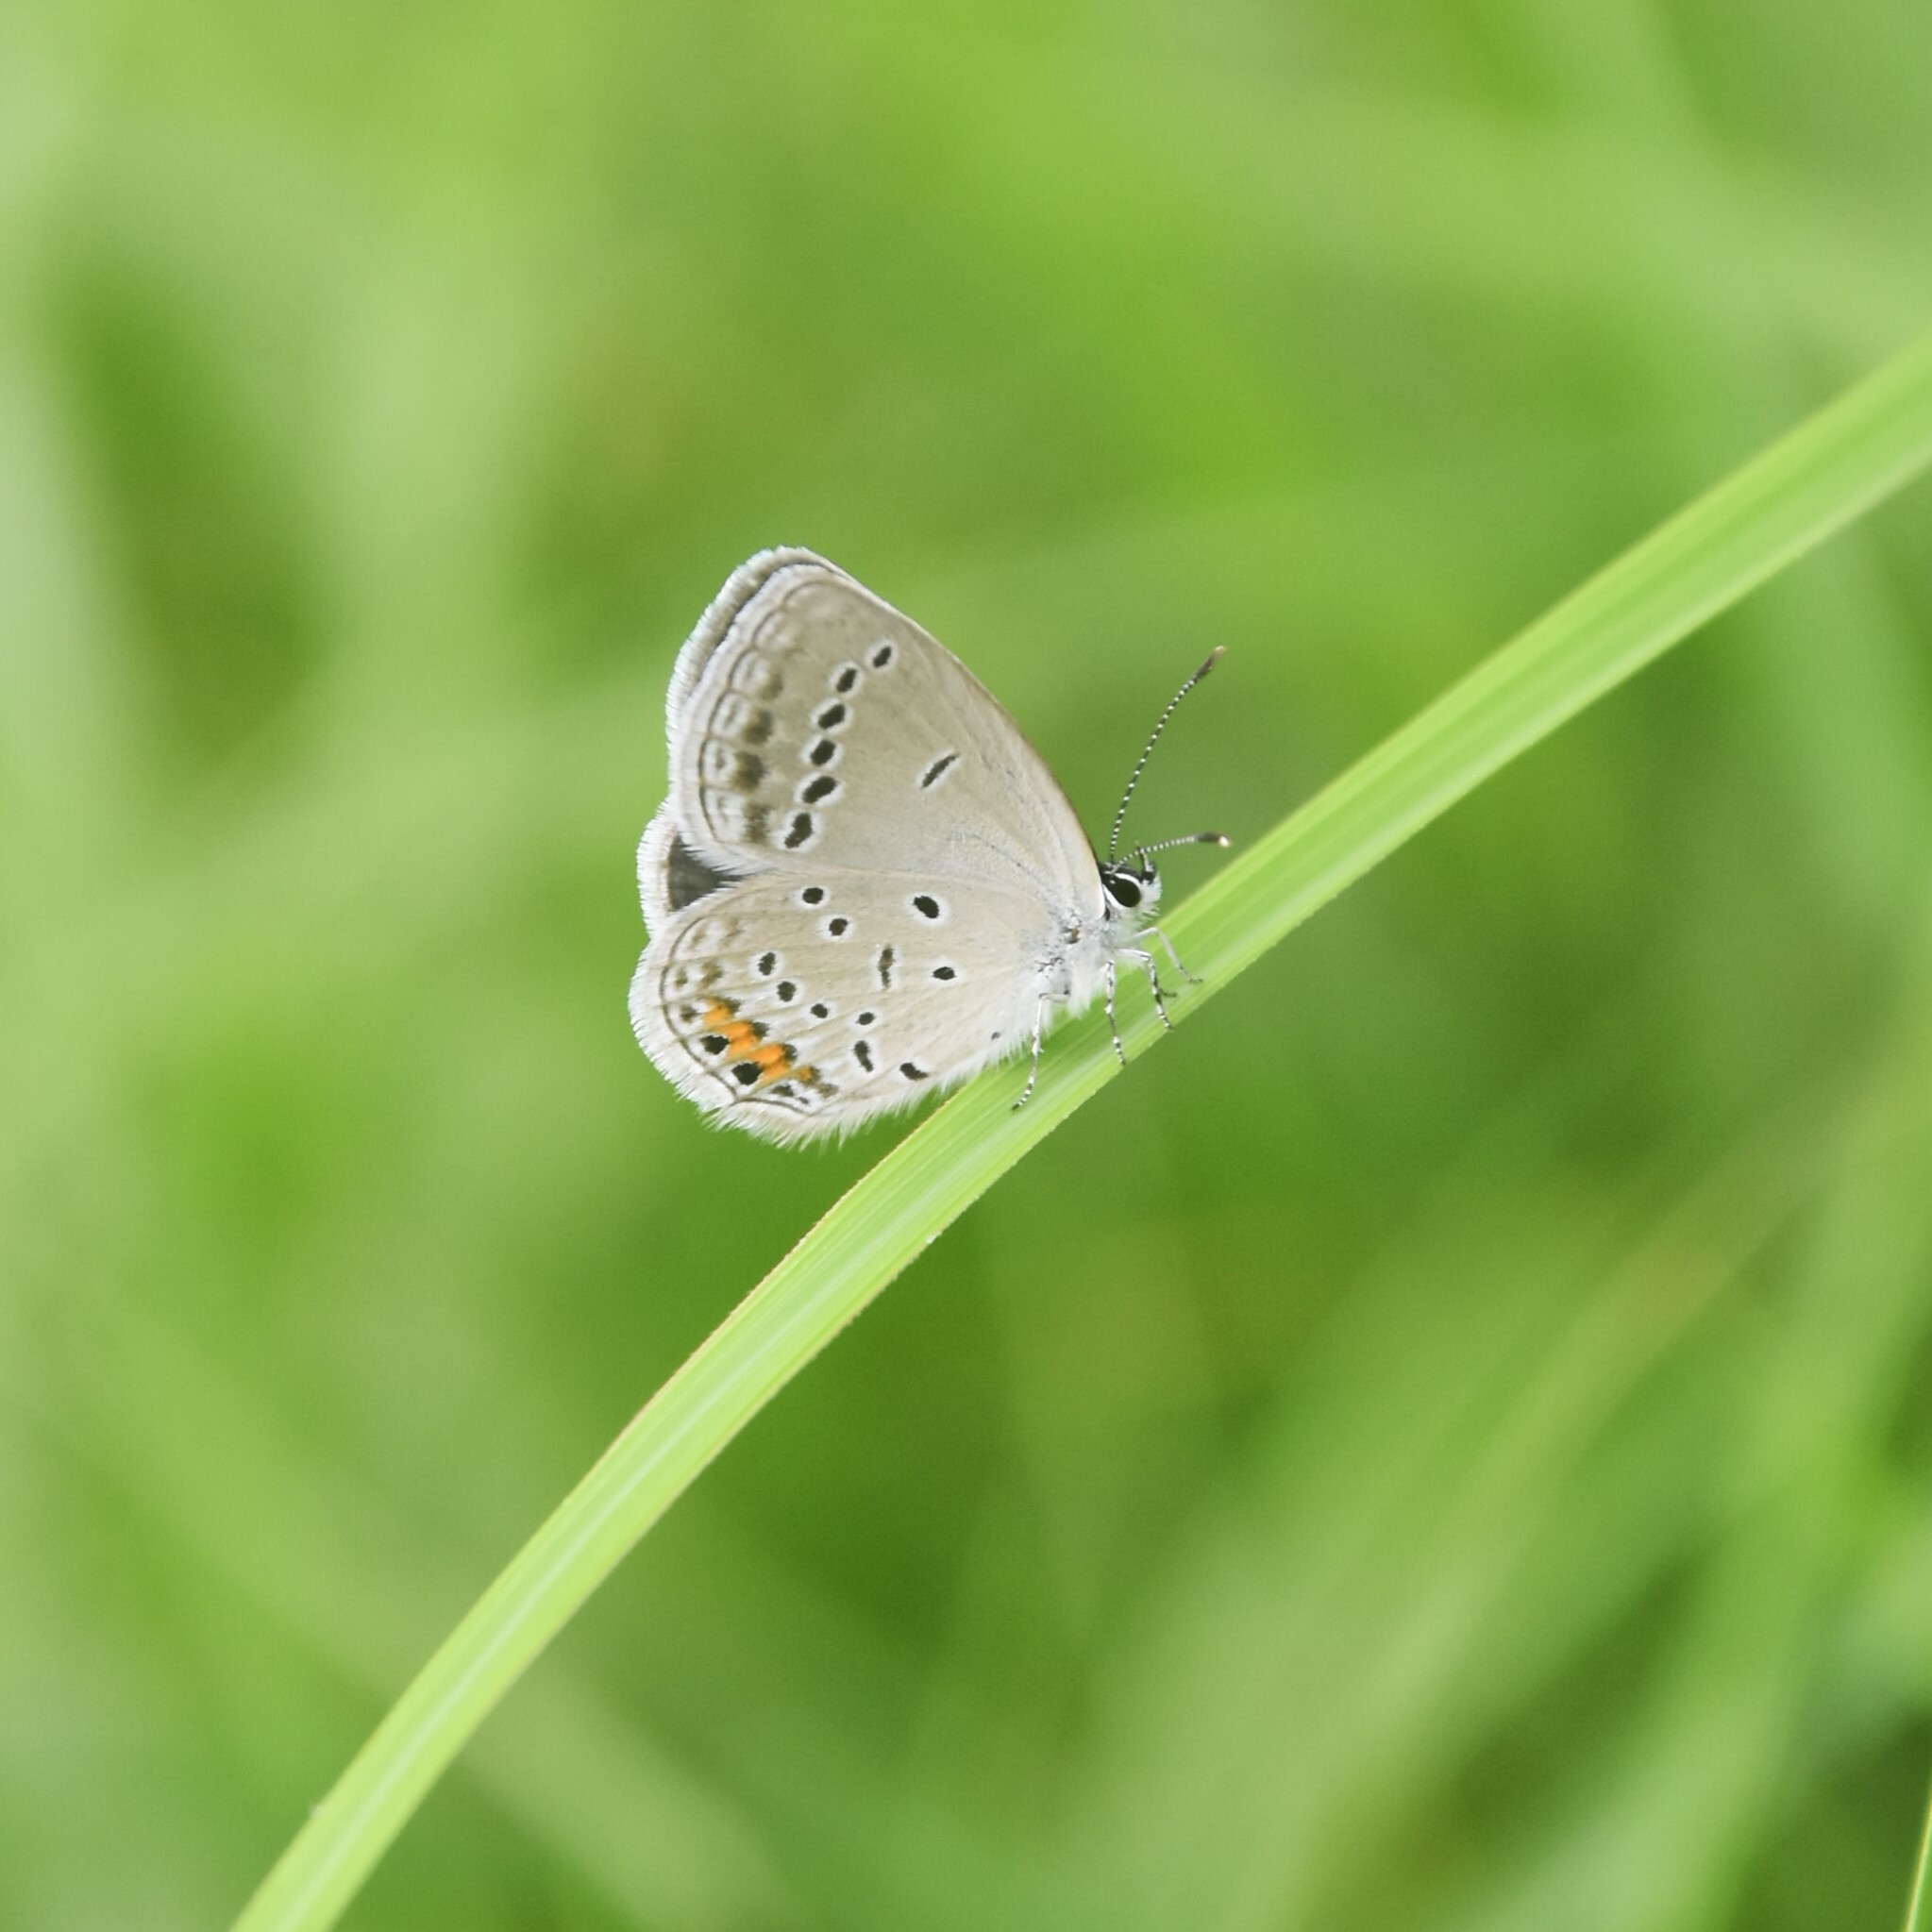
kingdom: Animalia
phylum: Arthropoda
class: Insecta
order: Lepidoptera
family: Lycaenidae
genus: Elkalyce
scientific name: Elkalyce argiades
